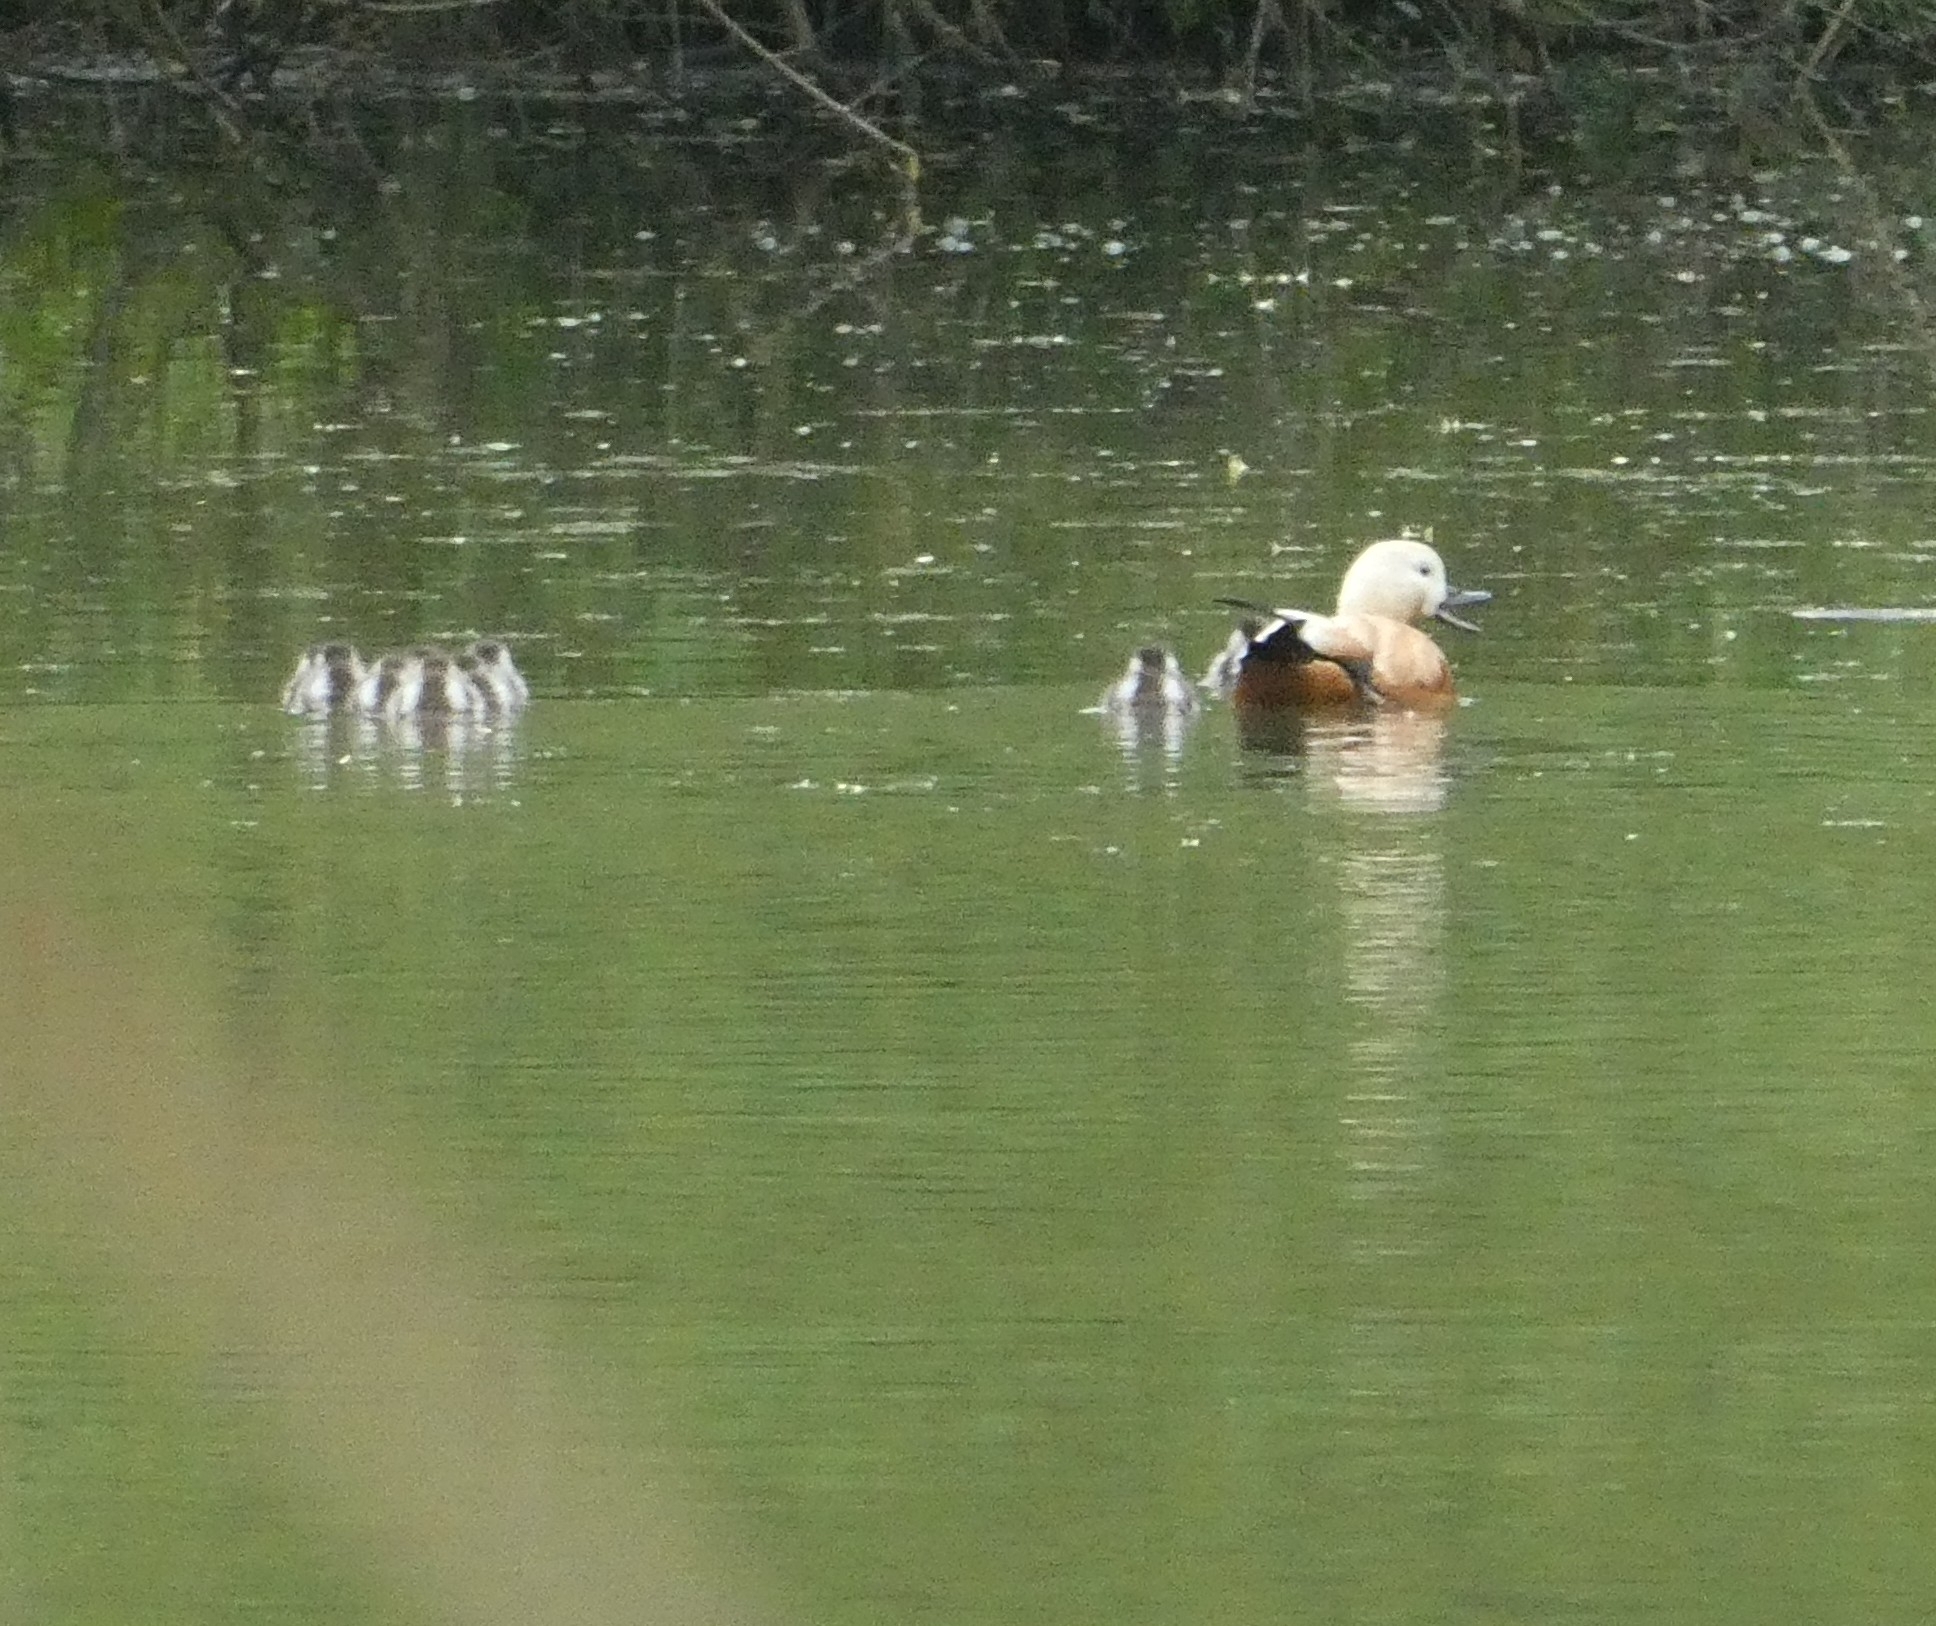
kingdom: Animalia
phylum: Chordata
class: Aves
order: Anseriformes
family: Anatidae
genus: Tadorna
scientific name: Tadorna ferruginea
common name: Ruddy shelduck
